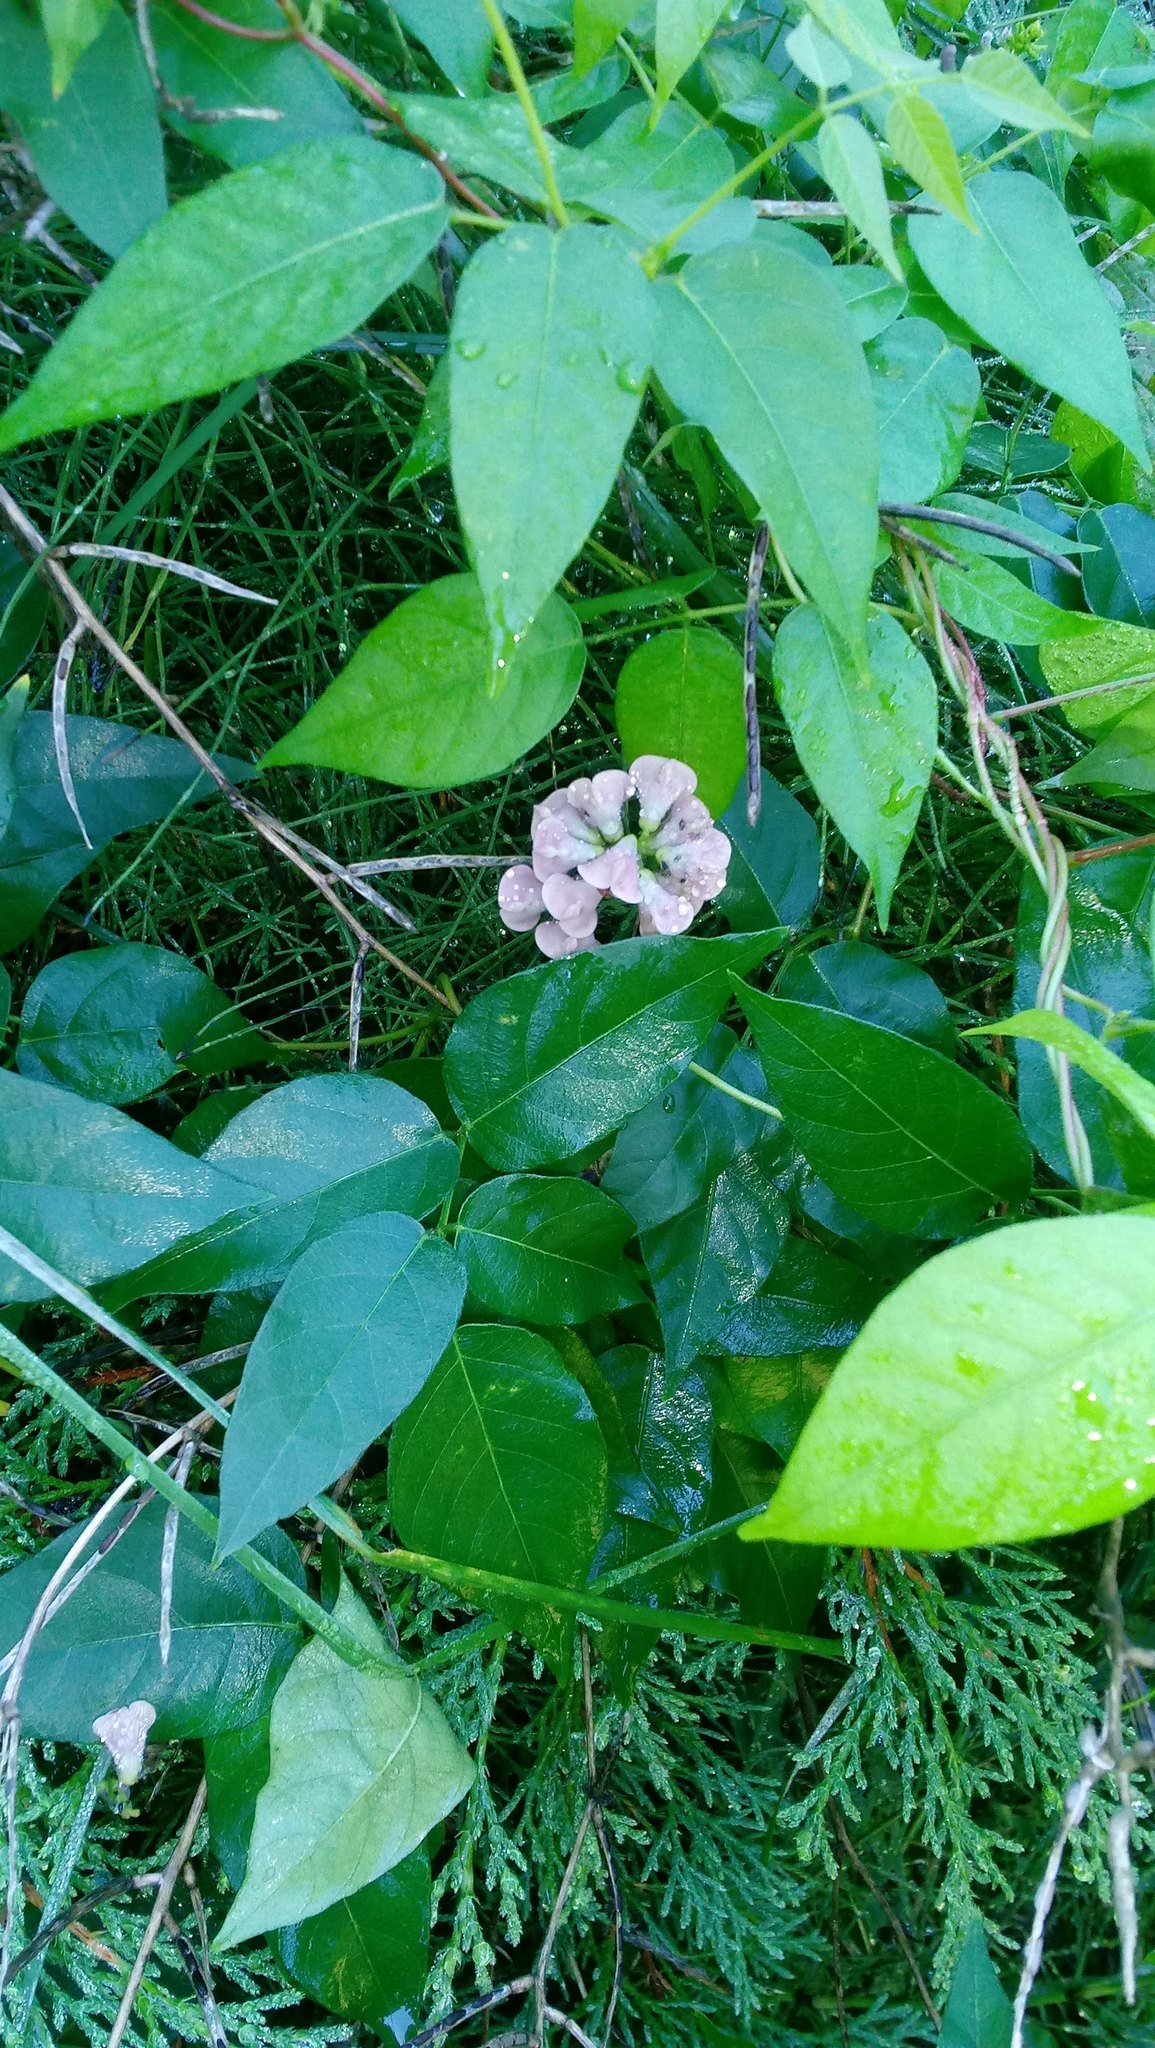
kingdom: Plantae
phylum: Tracheophyta
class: Magnoliopsida
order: Fabales
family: Fabaceae
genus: Apios
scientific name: Apios americana
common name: American potato-bean
